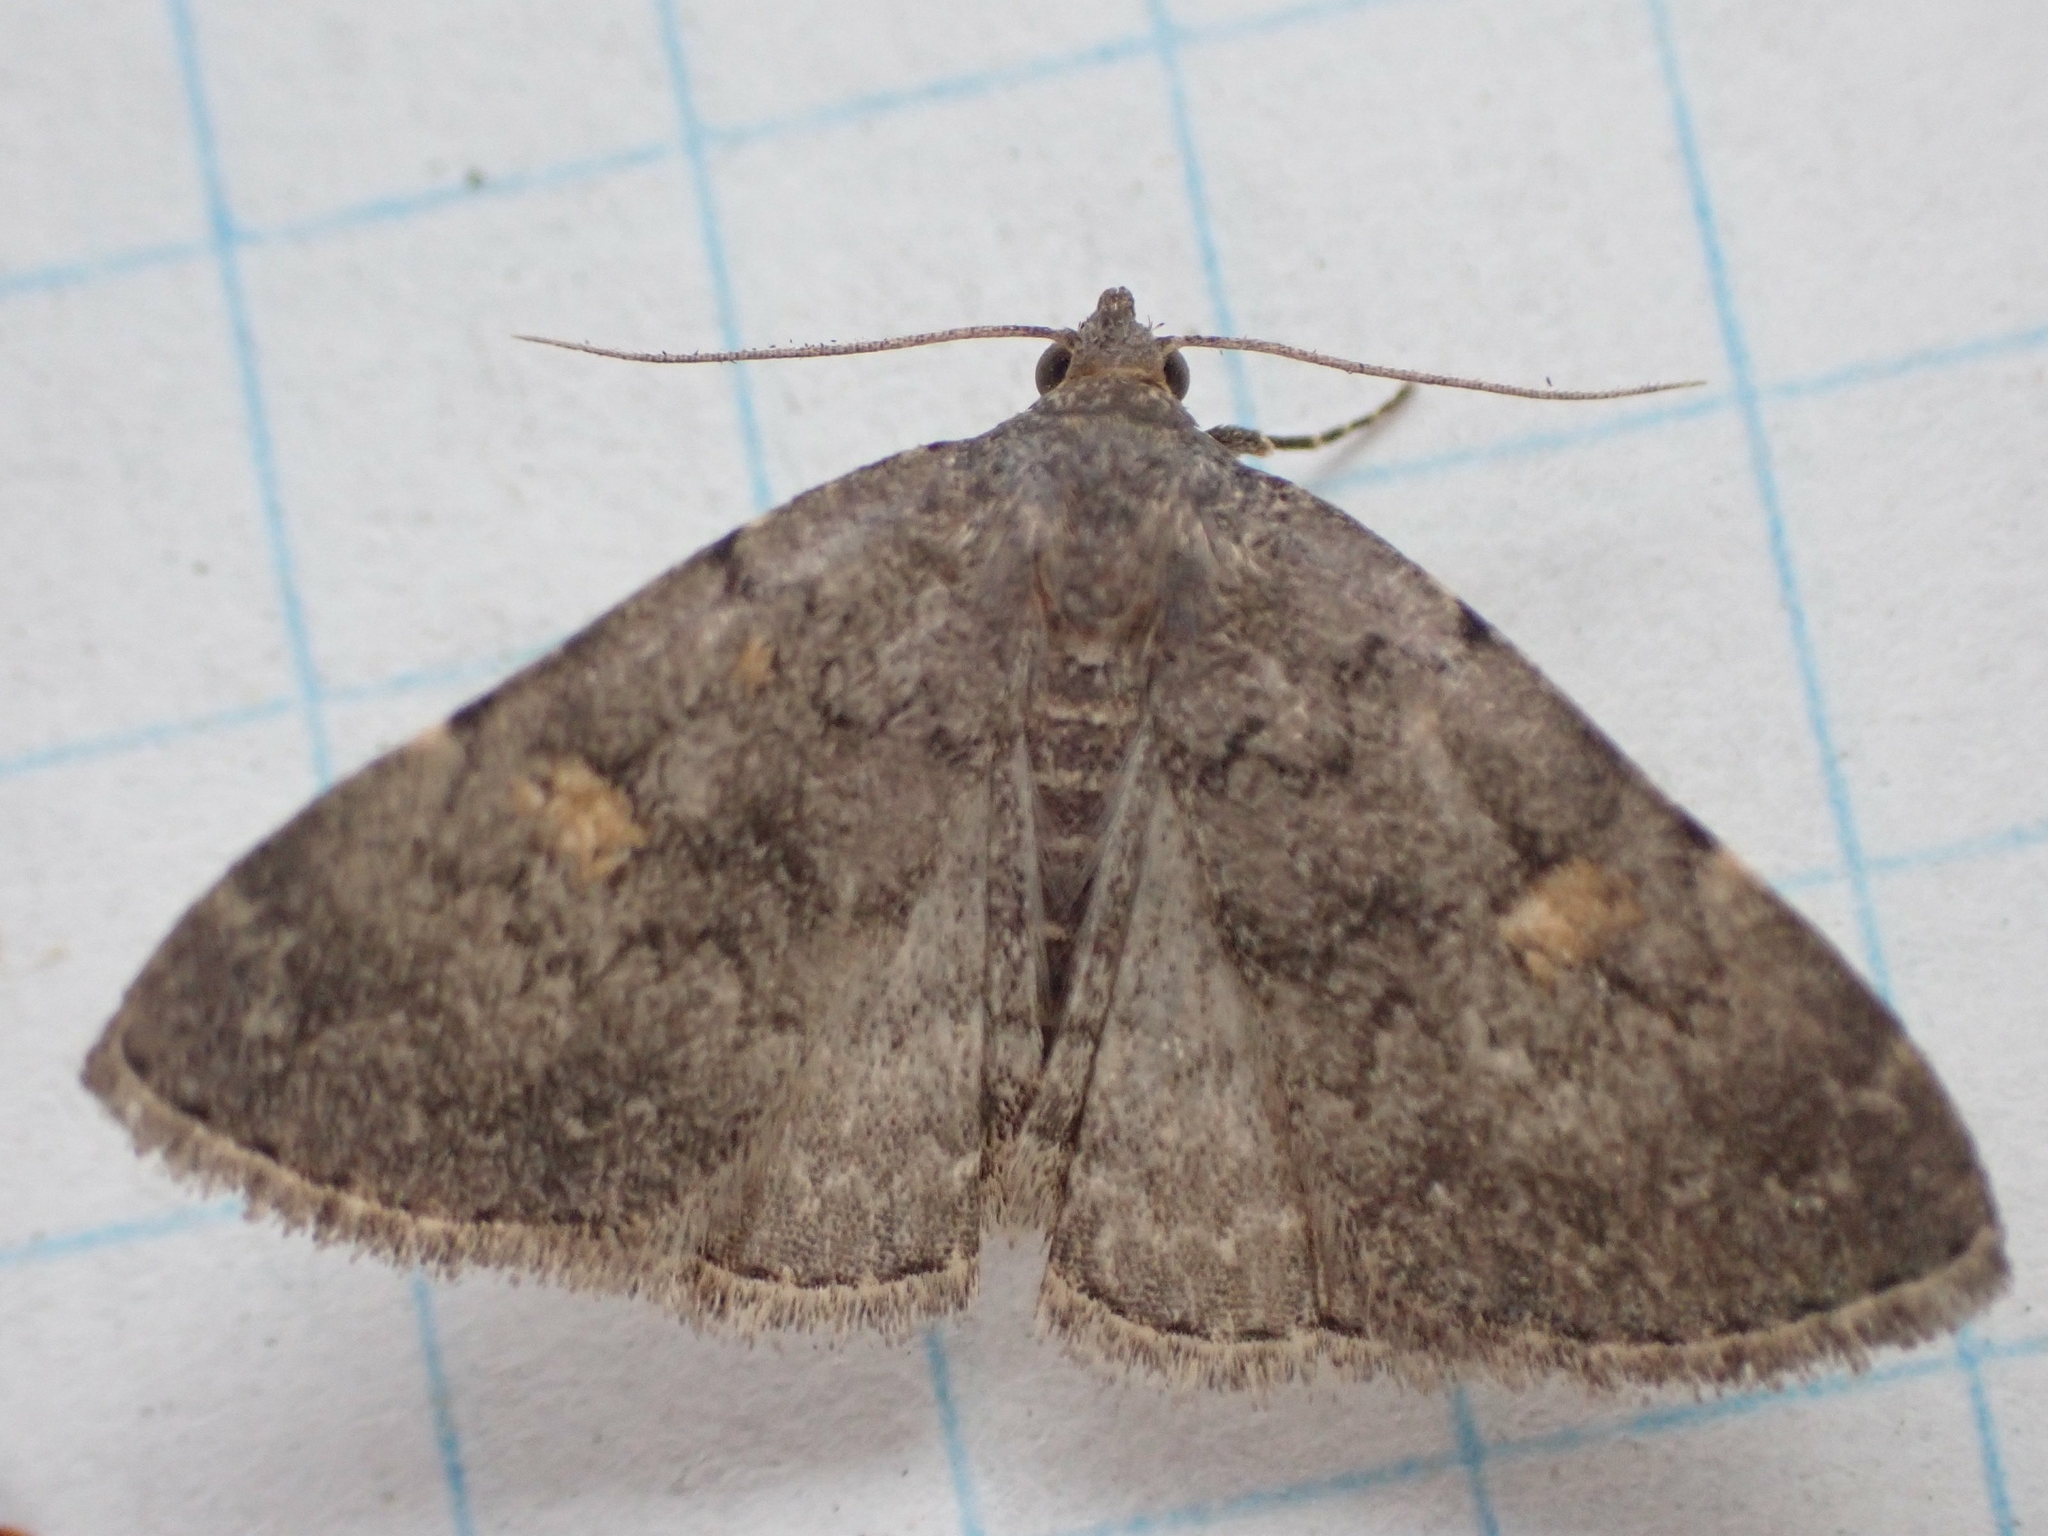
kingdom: Animalia
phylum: Arthropoda
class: Insecta
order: Lepidoptera
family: Erebidae
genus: Idia
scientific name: Idia aemula
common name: Common idia moth
